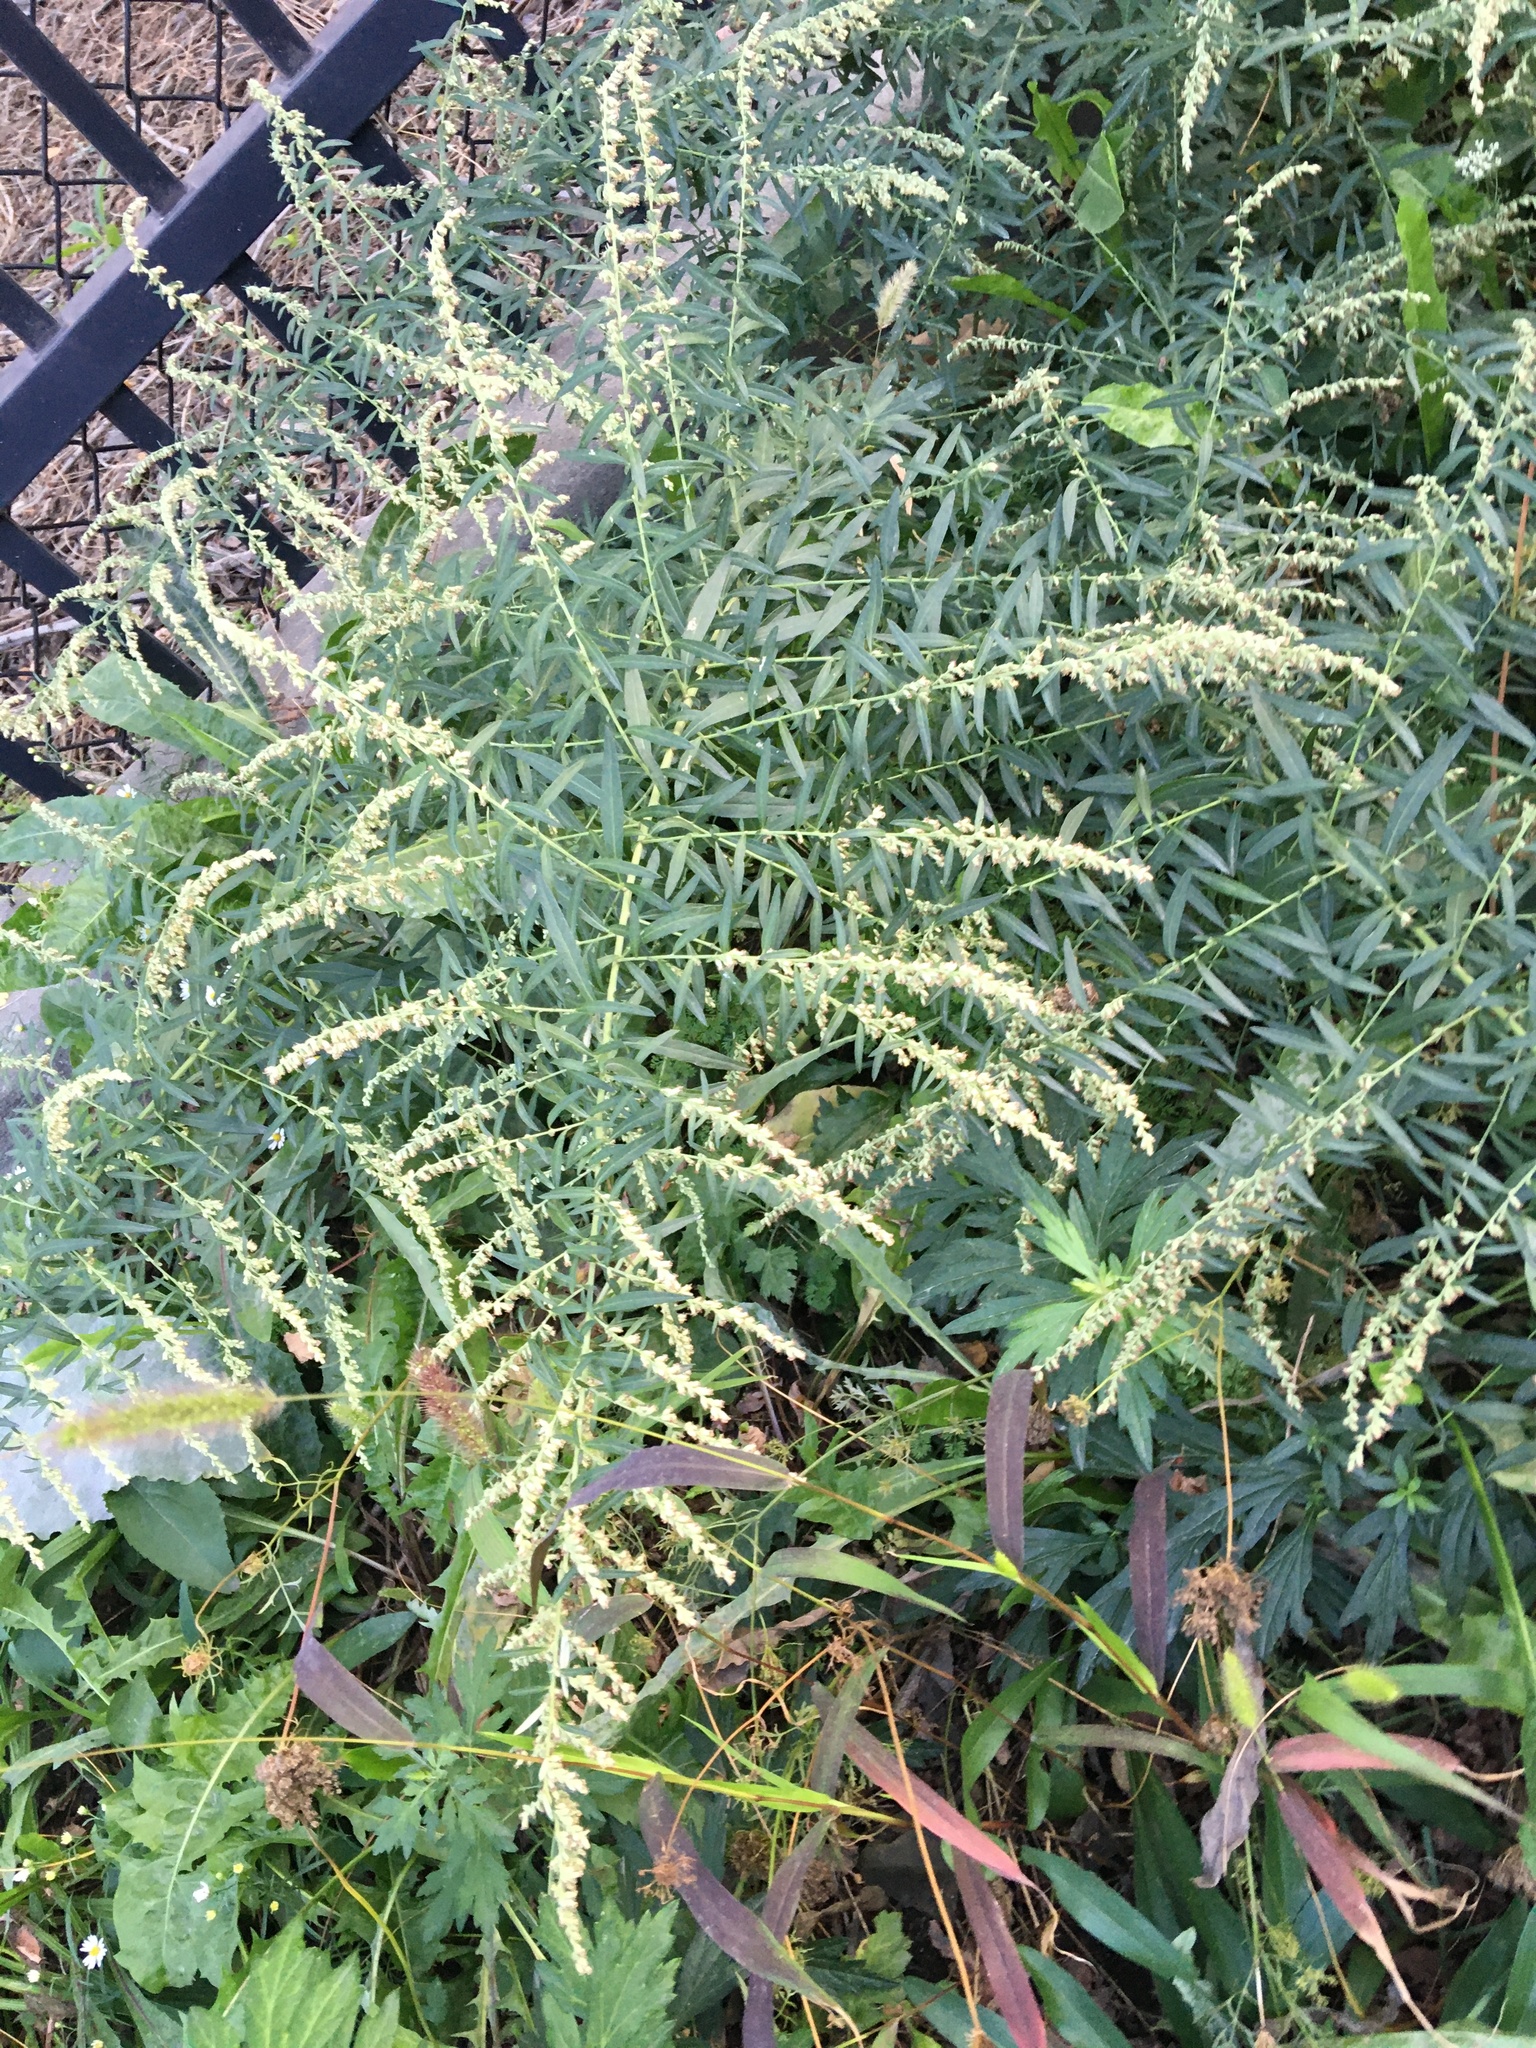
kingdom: Plantae
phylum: Tracheophyta
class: Magnoliopsida
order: Asterales
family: Asteraceae
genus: Artemisia
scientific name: Artemisia vulgaris
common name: Mugwort
